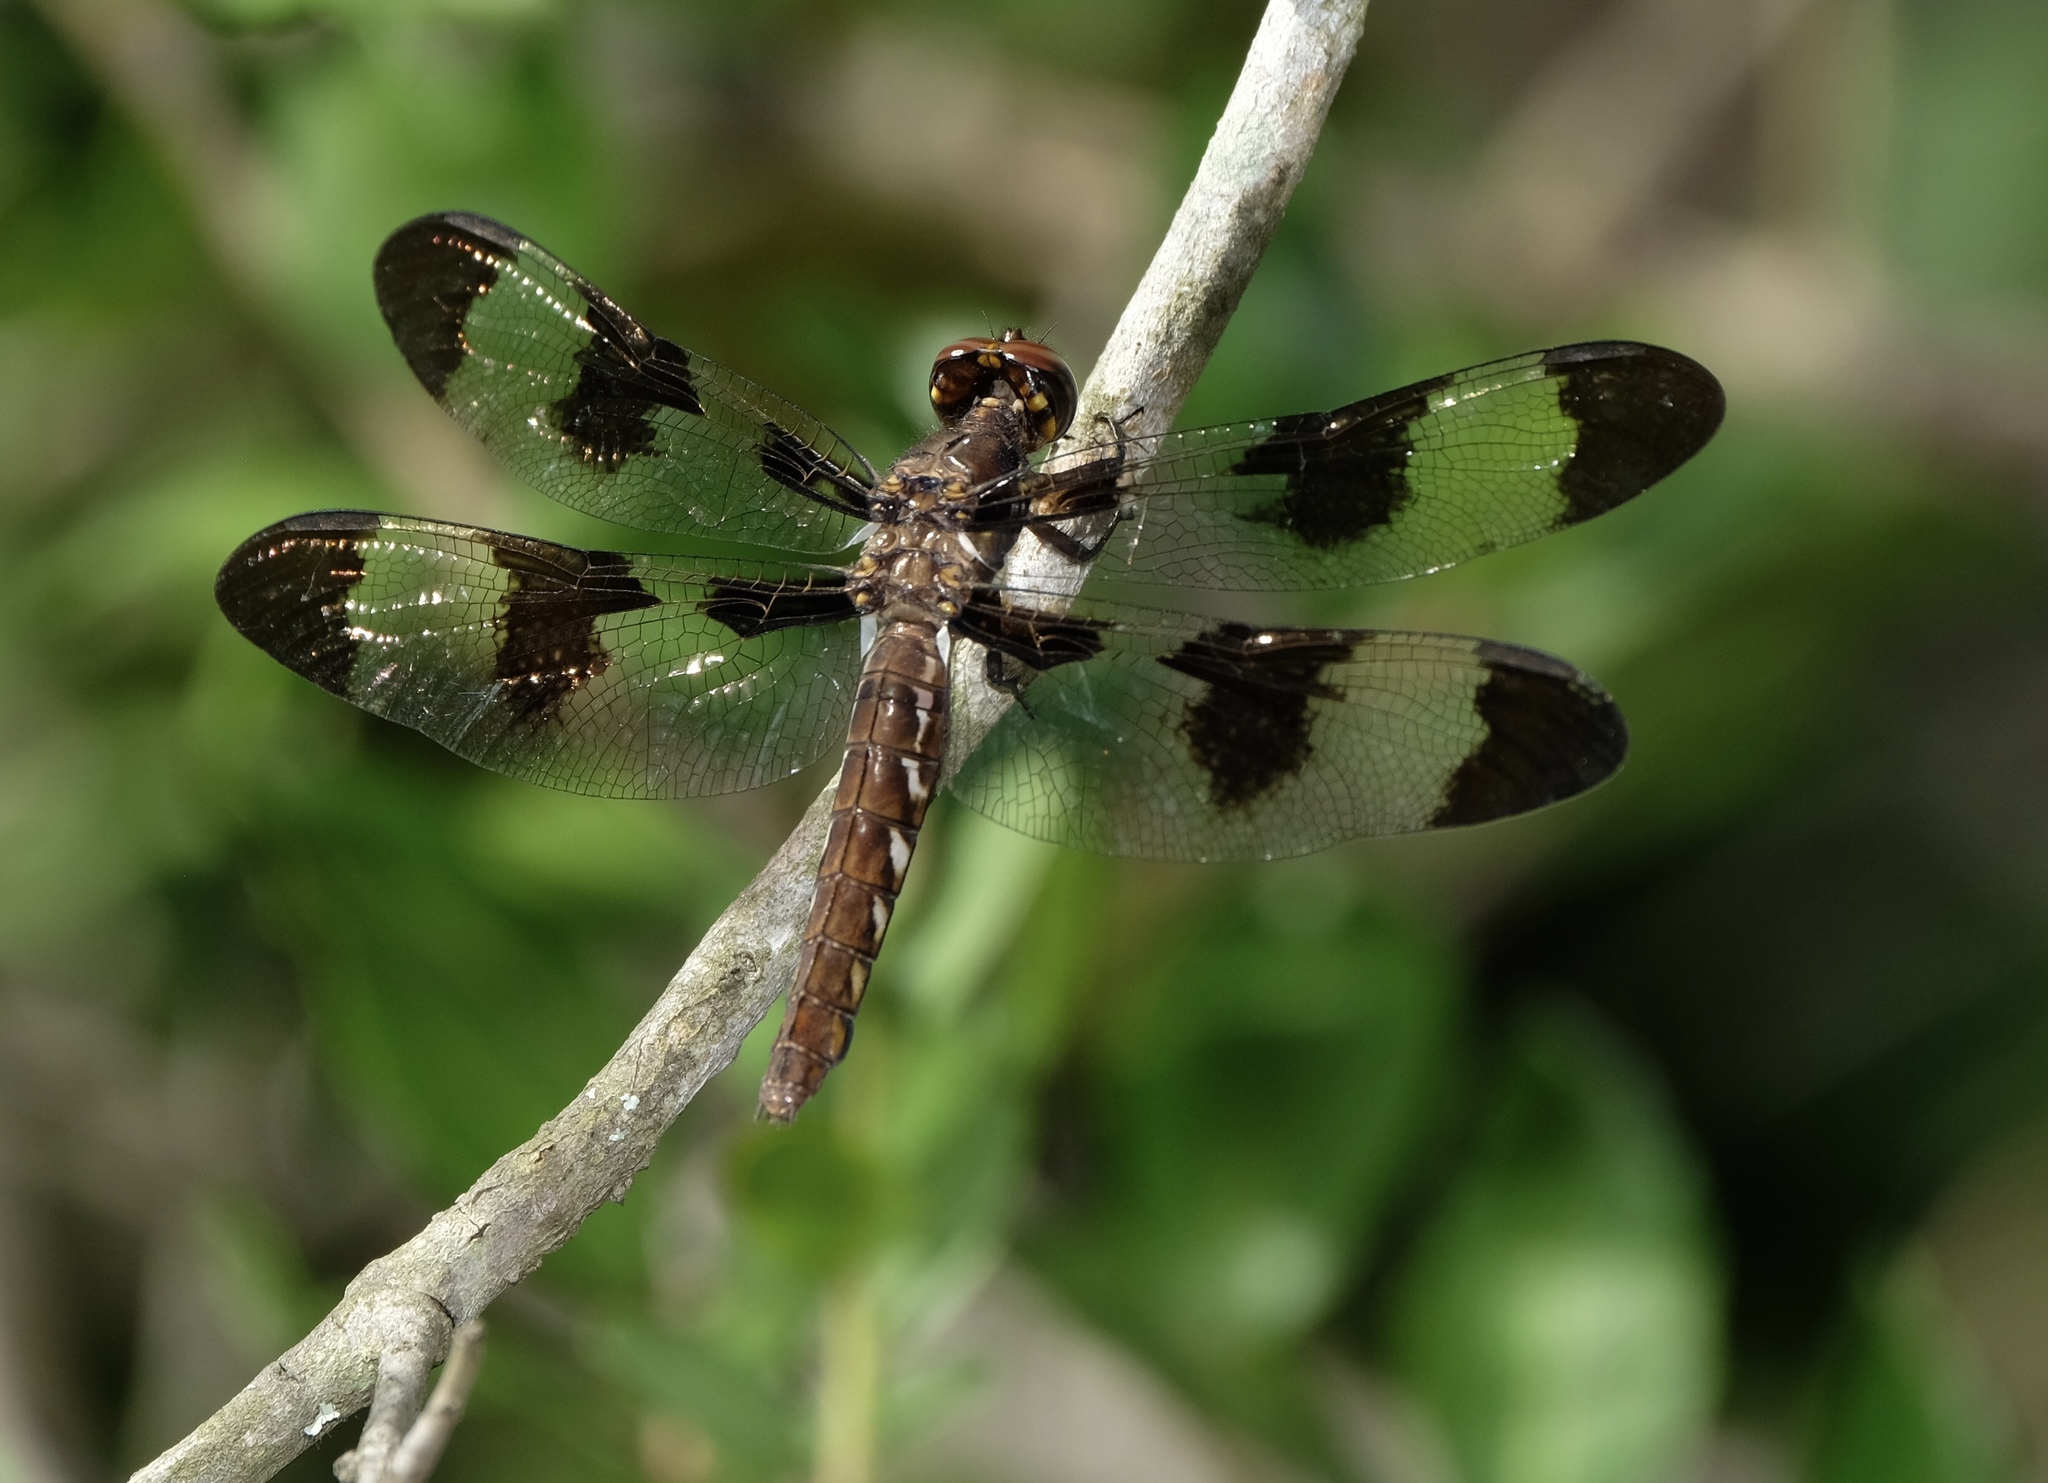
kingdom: Animalia
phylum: Arthropoda
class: Insecta
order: Odonata
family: Libellulidae
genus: Plathemis
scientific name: Plathemis lydia
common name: Common whitetail
